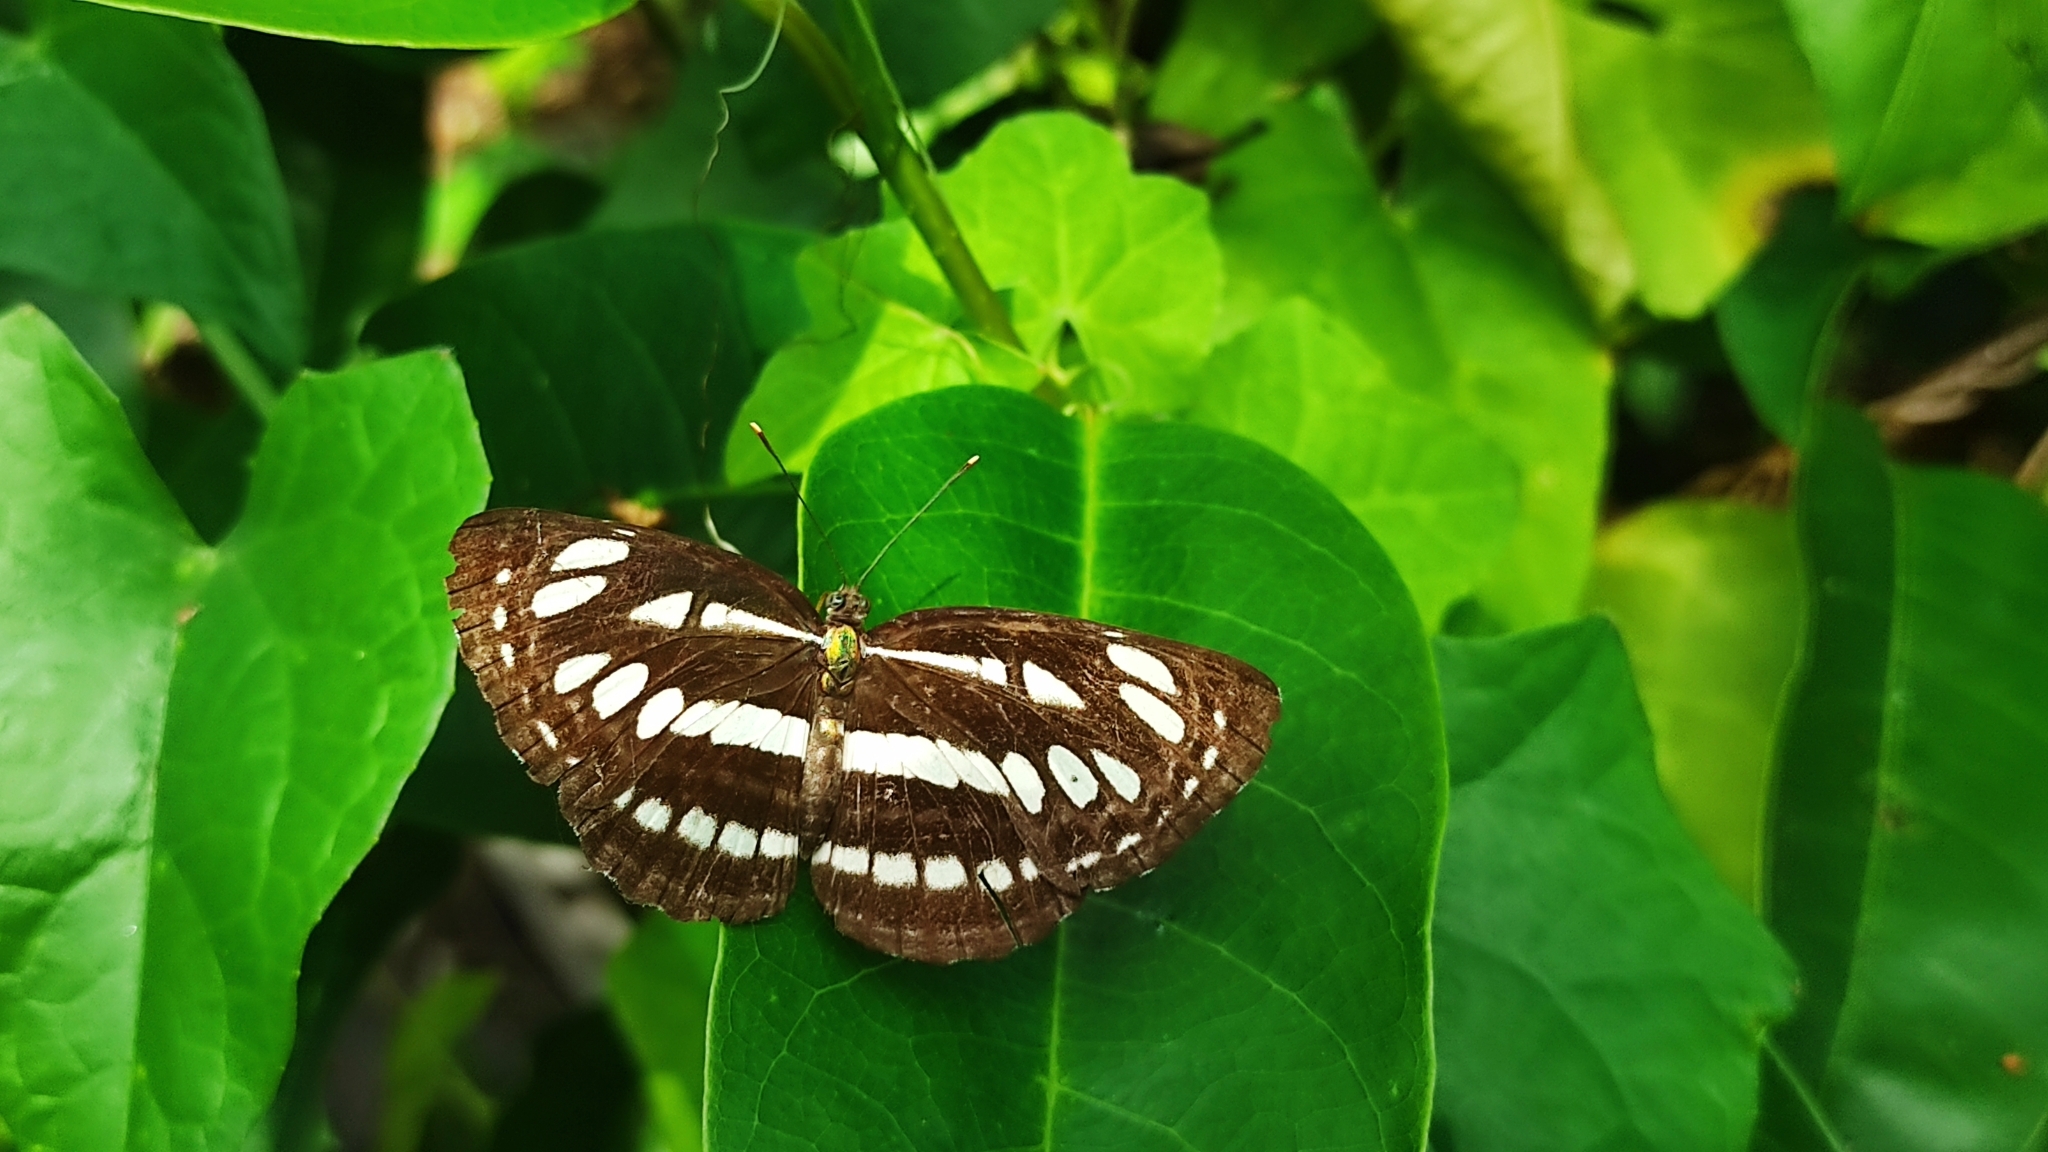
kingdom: Animalia
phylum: Arthropoda
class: Insecta
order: Lepidoptera
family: Nymphalidae
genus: Neptis
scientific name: Neptis hylas
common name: Common sailer
